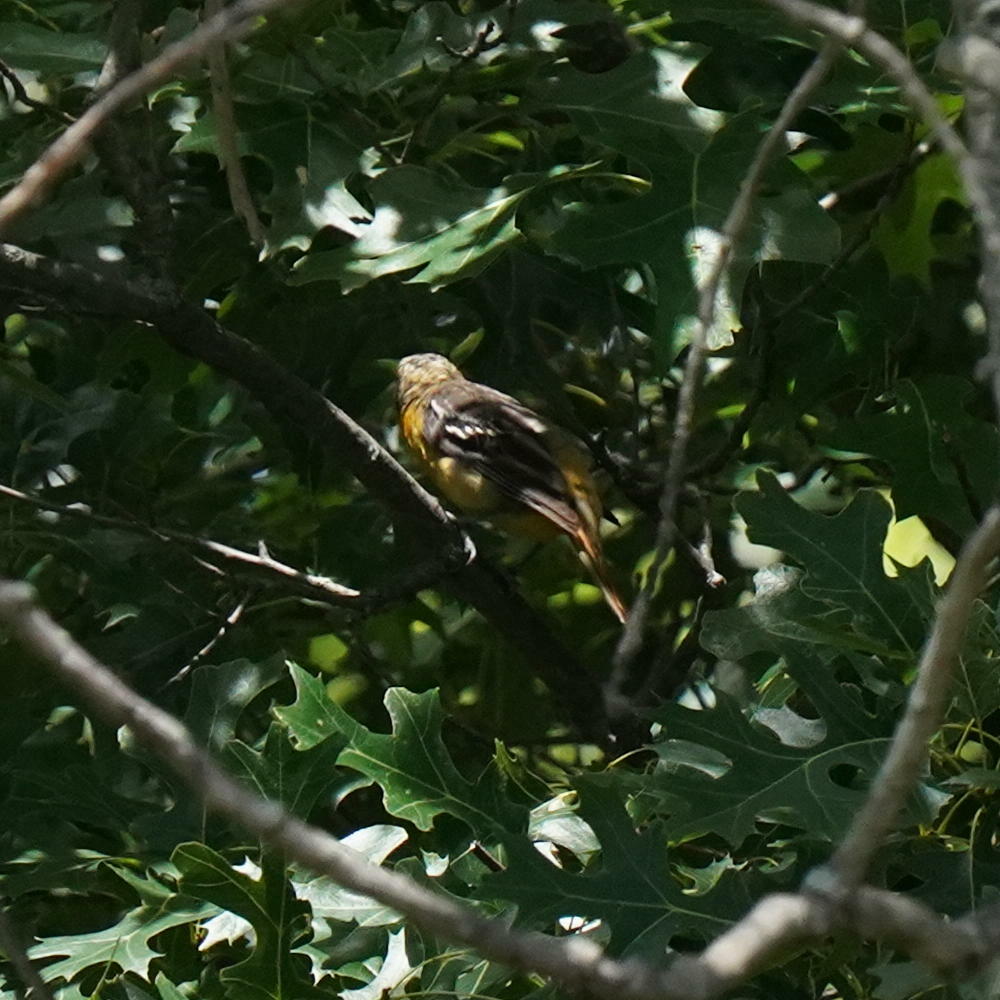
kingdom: Animalia
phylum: Chordata
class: Aves
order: Passeriformes
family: Icteridae
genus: Icterus
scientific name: Icterus galbula
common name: Baltimore oriole
